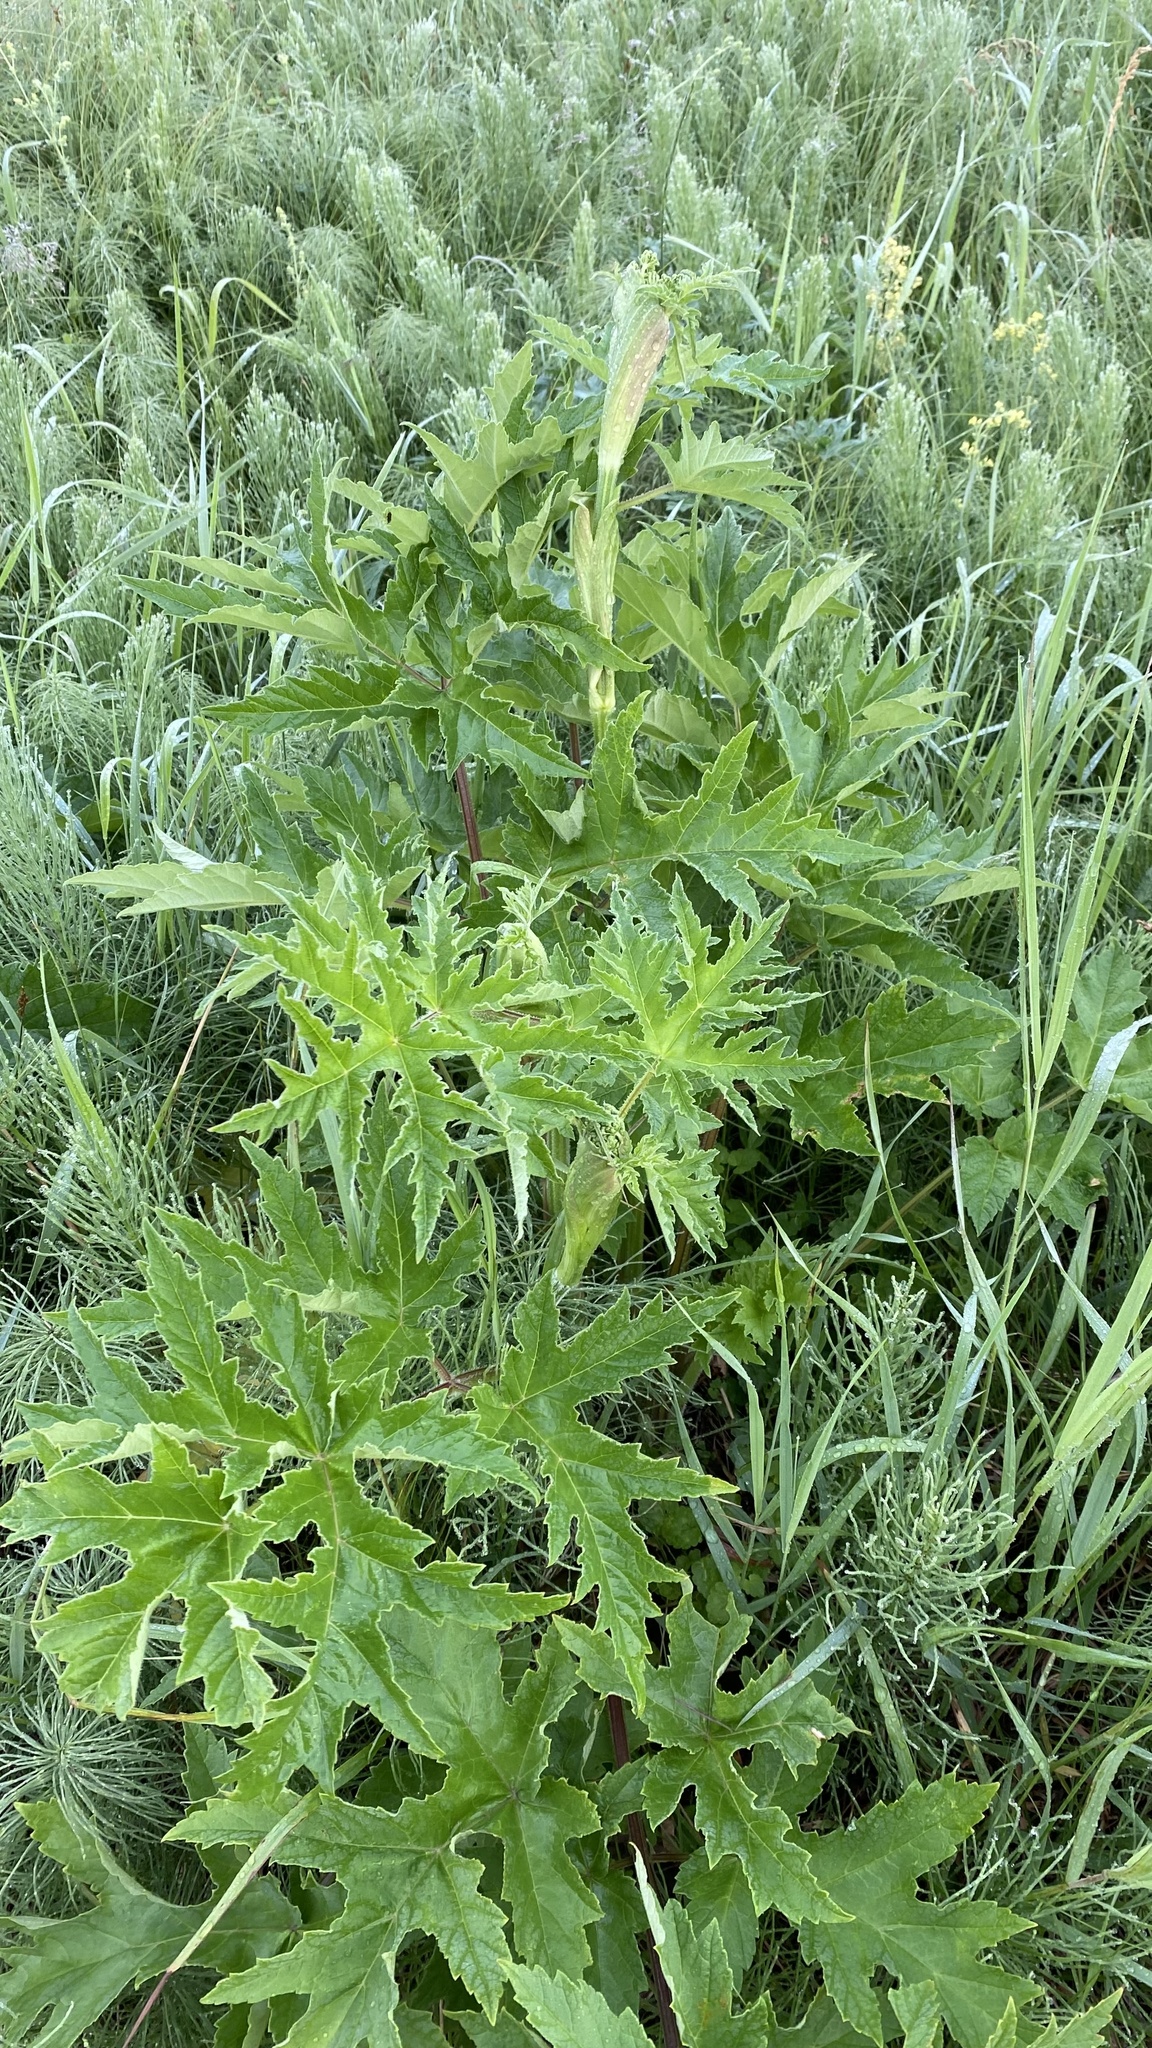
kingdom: Plantae
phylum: Tracheophyta
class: Magnoliopsida
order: Apiales
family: Apiaceae
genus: Heracleum
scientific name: Heracleum sphondylium
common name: Hogweed
